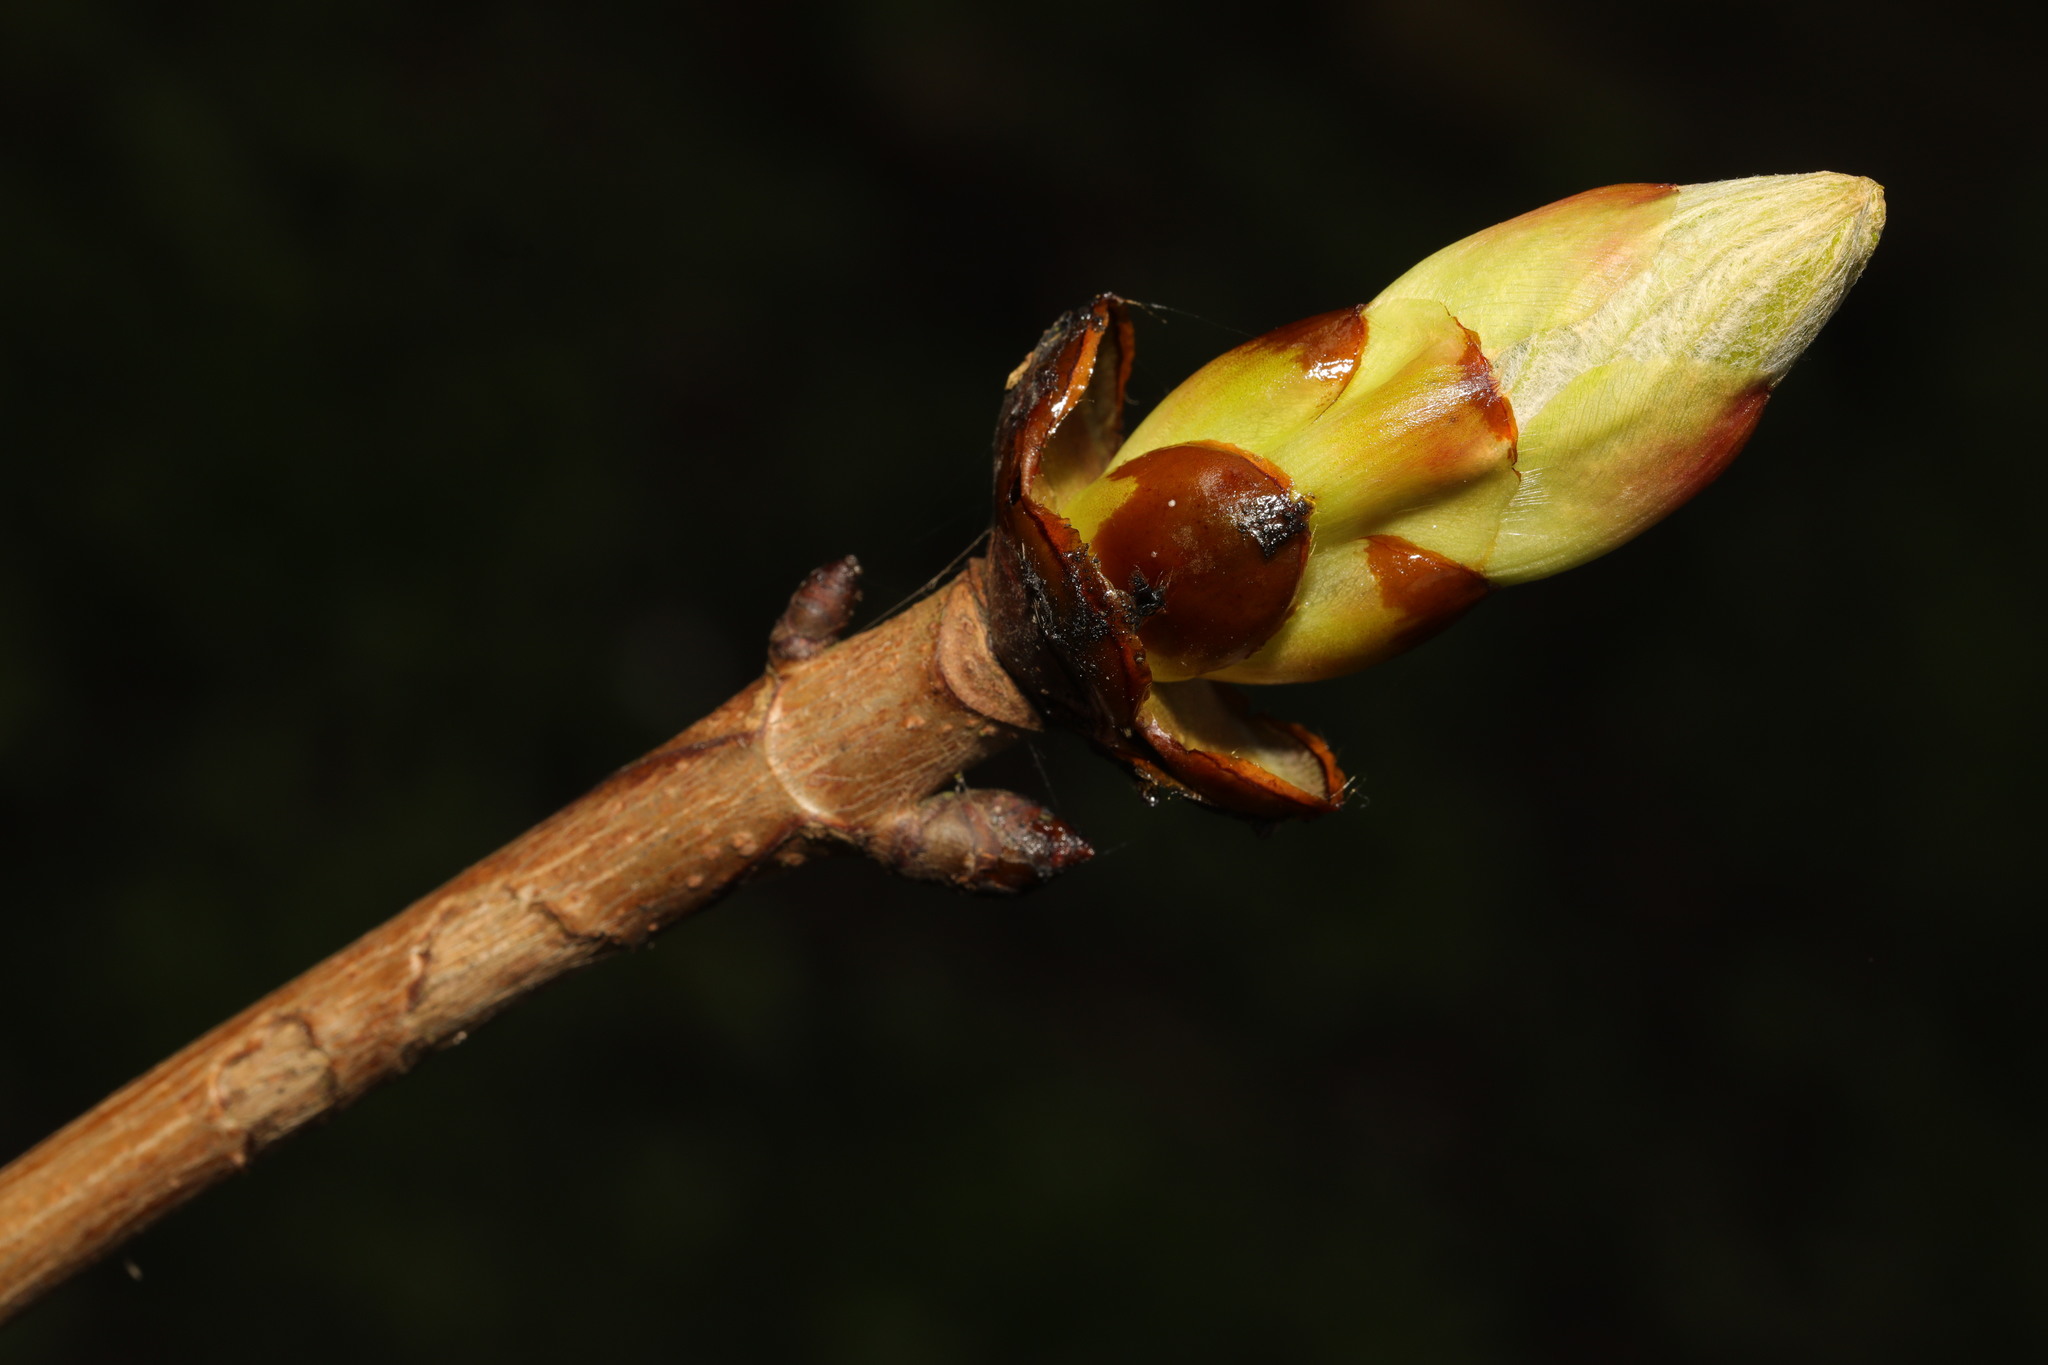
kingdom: Plantae
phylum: Tracheophyta
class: Magnoliopsida
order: Sapindales
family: Sapindaceae
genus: Aesculus
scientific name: Aesculus hippocastanum
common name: Horse-chestnut
